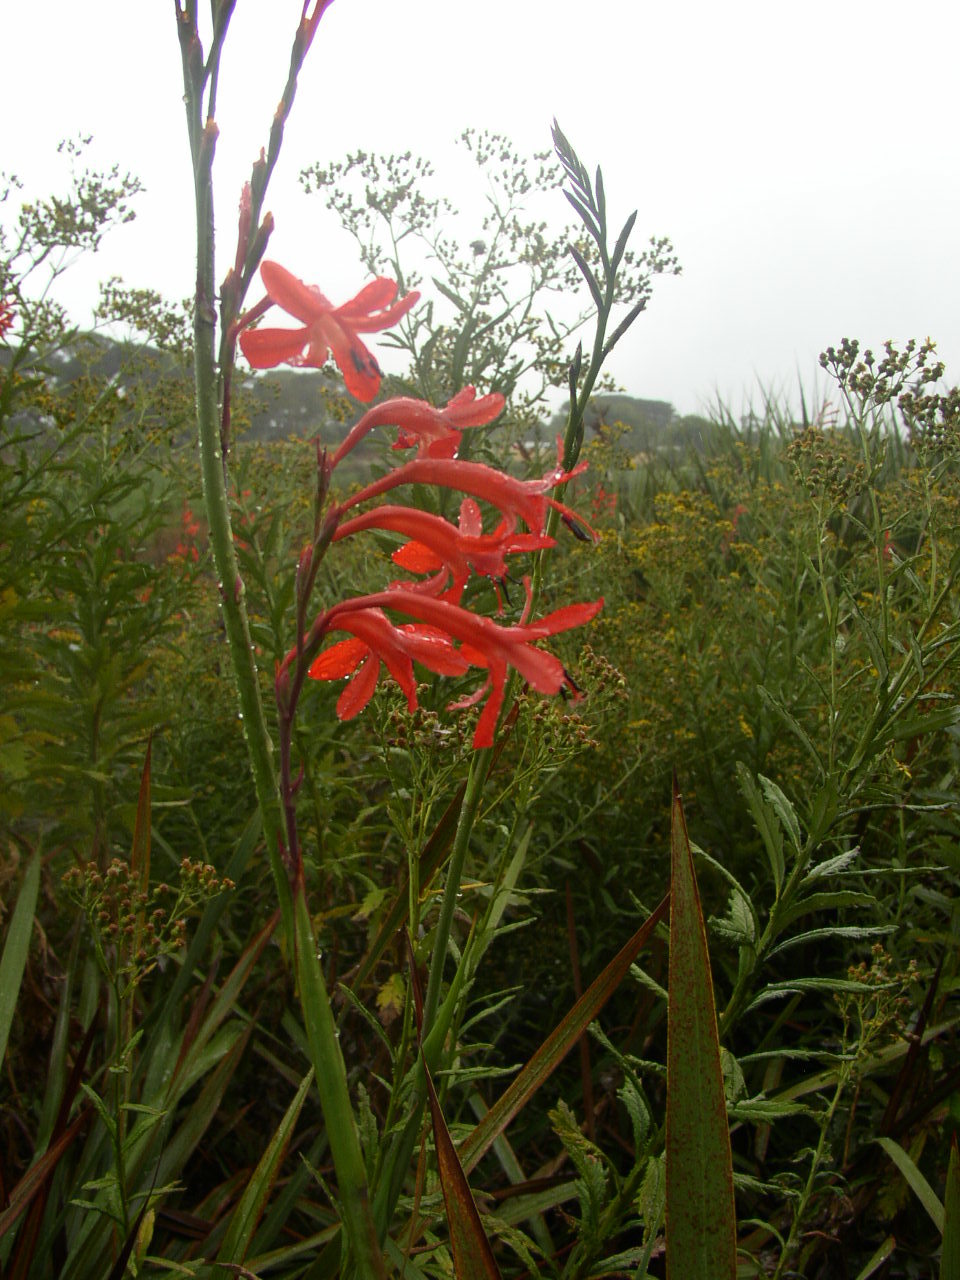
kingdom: Plantae
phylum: Tracheophyta
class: Liliopsida
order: Asparagales
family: Iridaceae
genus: Watsonia
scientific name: Watsonia angusta
